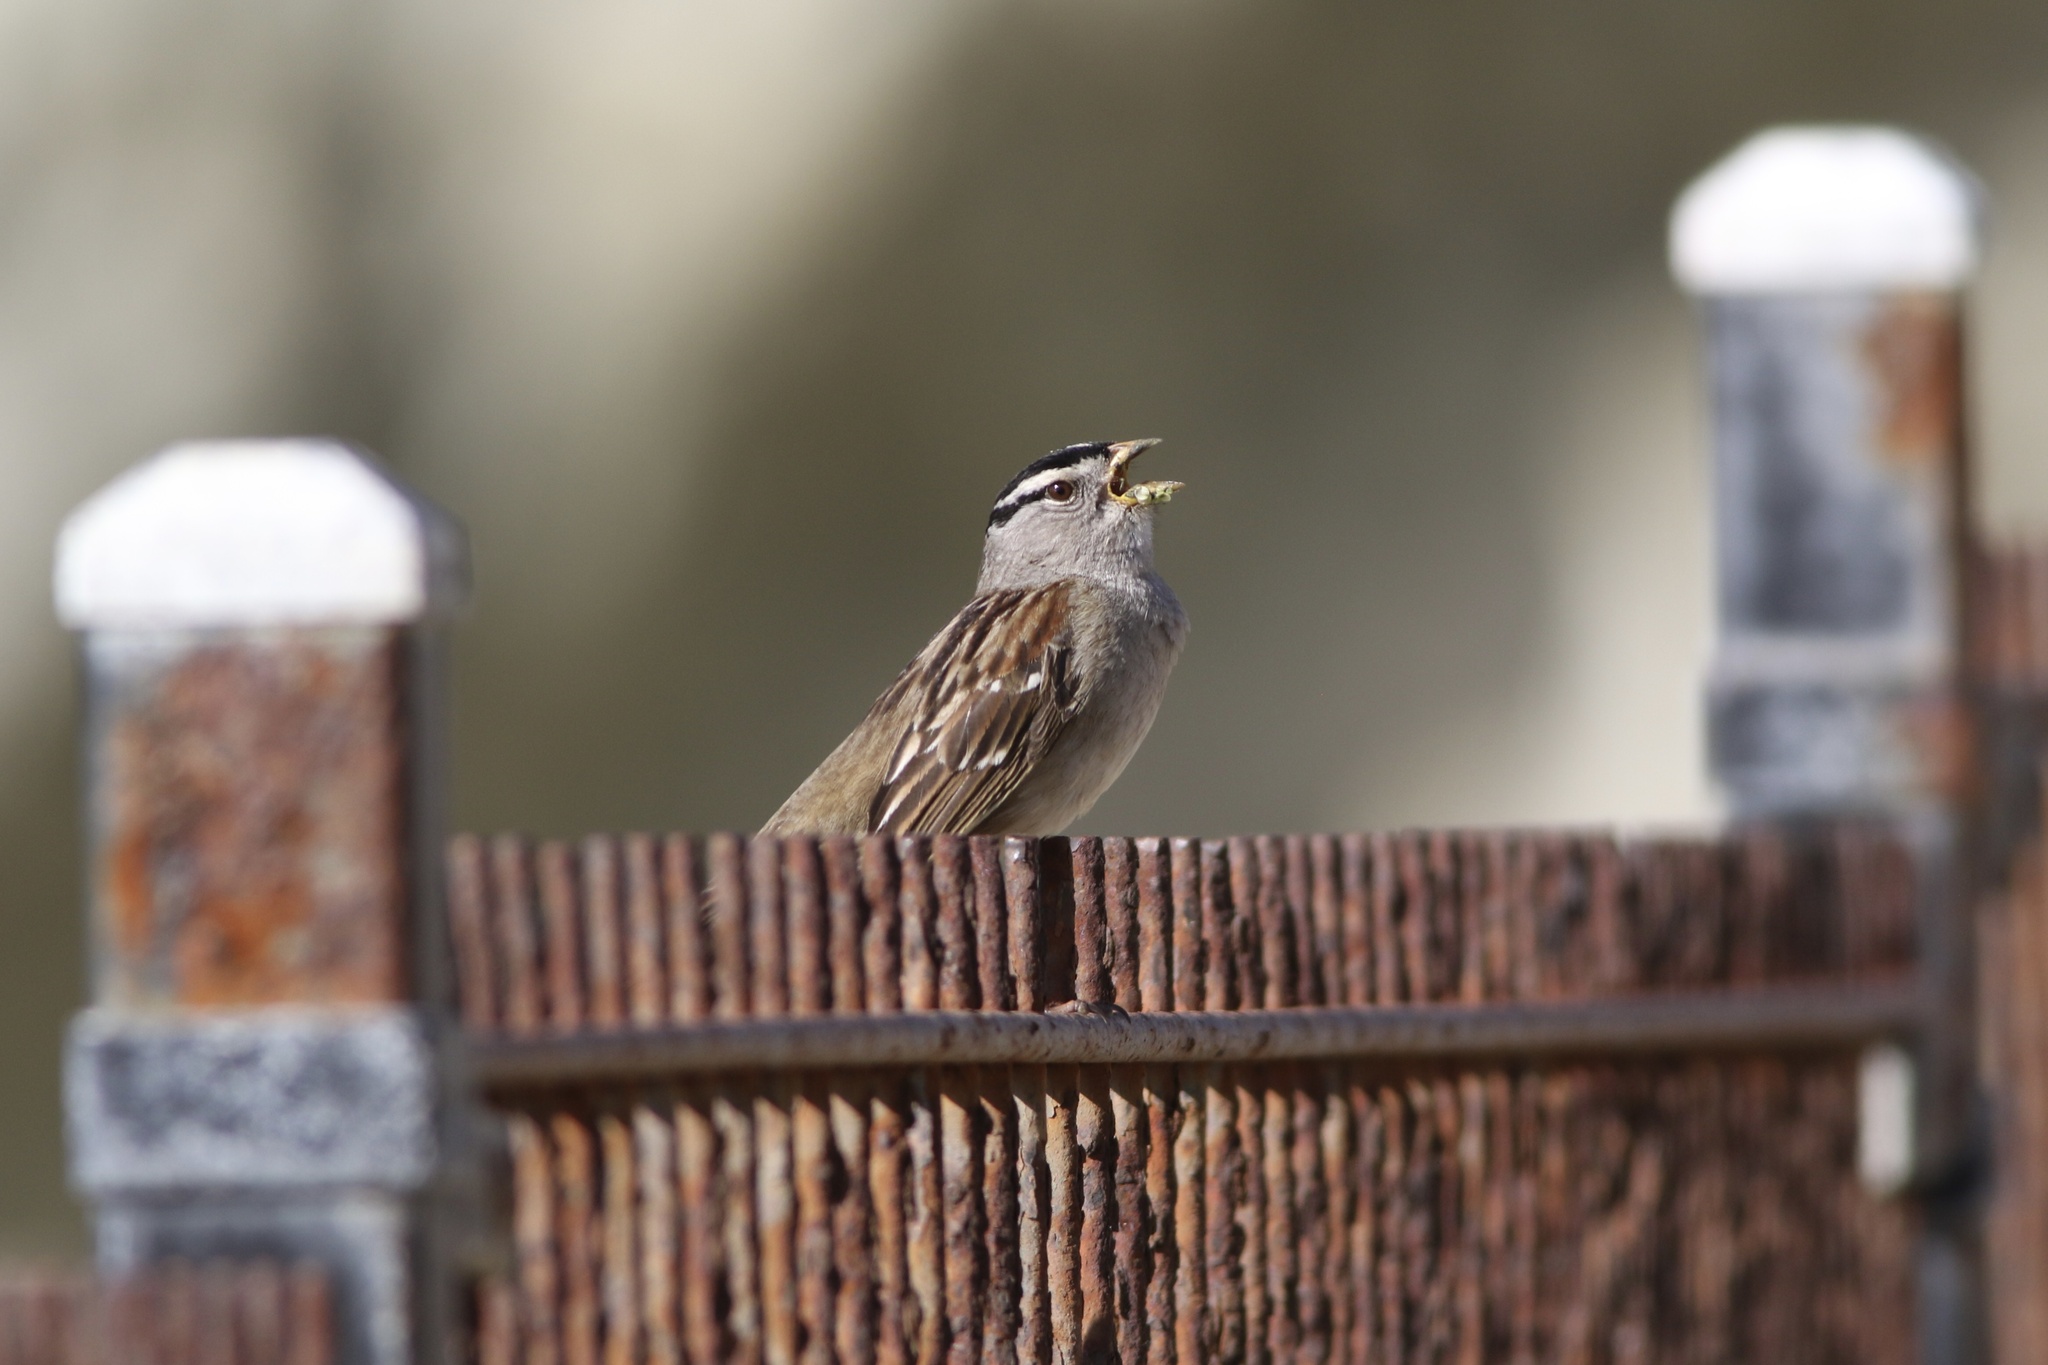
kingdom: Animalia
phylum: Chordata
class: Aves
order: Passeriformes
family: Passerellidae
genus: Zonotrichia
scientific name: Zonotrichia leucophrys
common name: White-crowned sparrow
